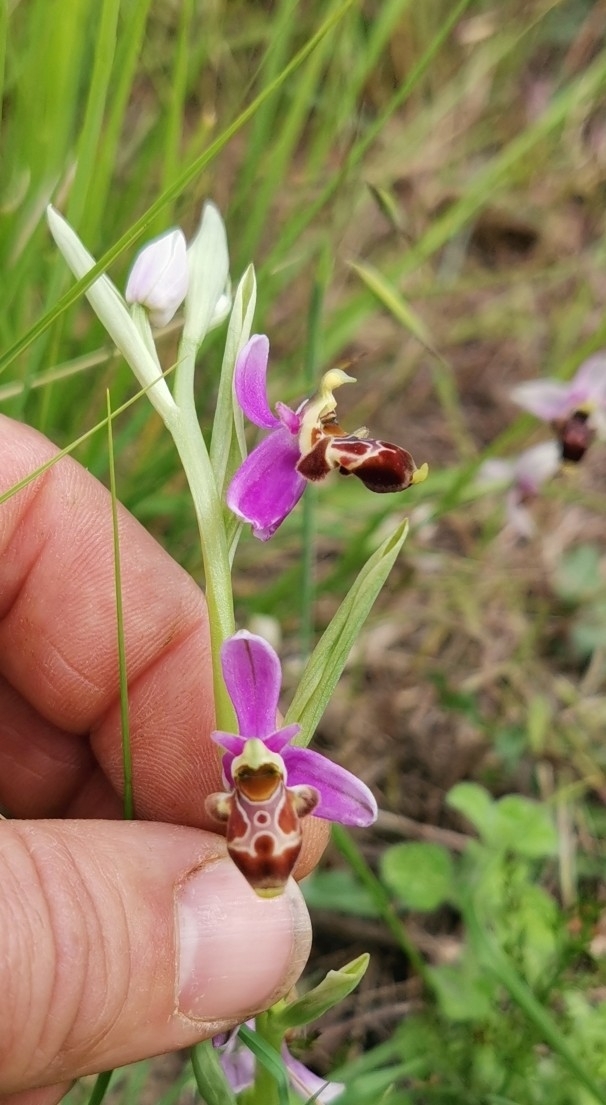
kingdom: Plantae
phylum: Tracheophyta
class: Liliopsida
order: Asparagales
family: Orchidaceae
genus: Ophrys
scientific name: Ophrys scolopax
